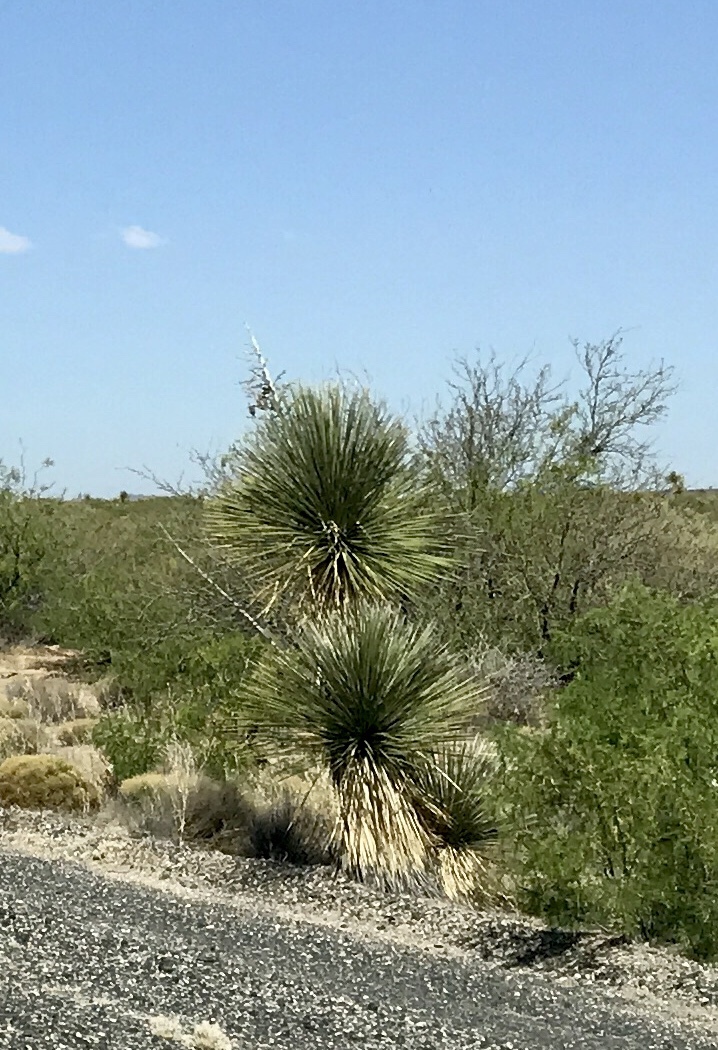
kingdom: Plantae
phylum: Tracheophyta
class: Liliopsida
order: Asparagales
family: Asparagaceae
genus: Yucca
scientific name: Yucca elata
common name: Palmella
